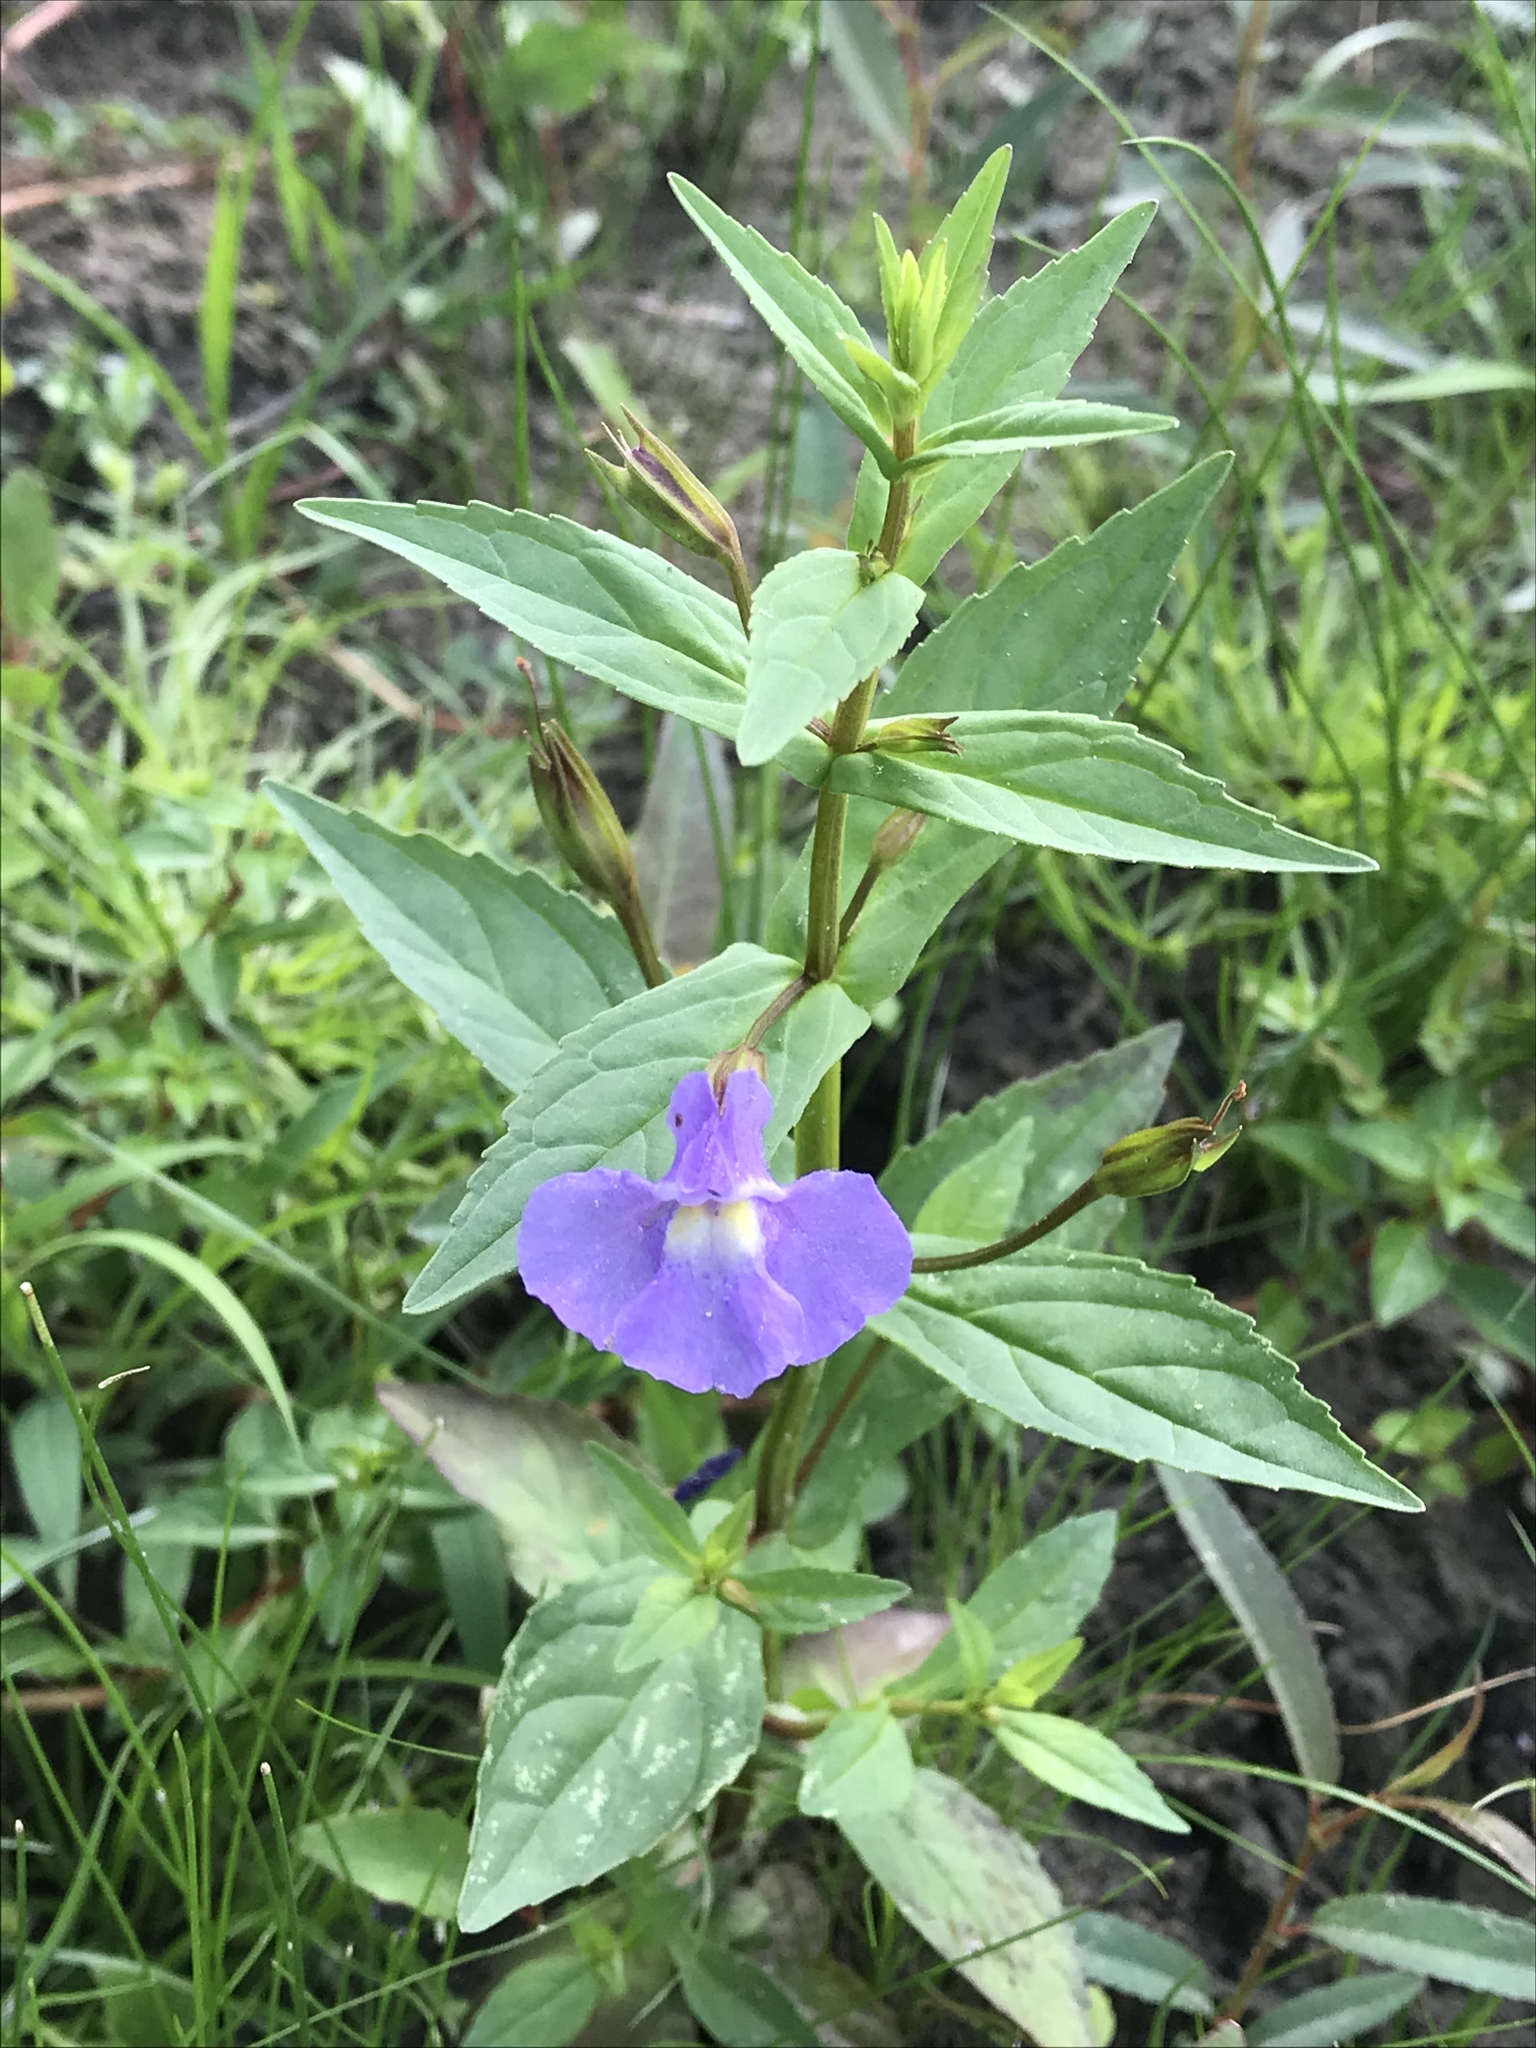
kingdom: Plantae
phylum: Tracheophyta
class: Magnoliopsida
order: Lamiales
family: Phrymaceae
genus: Mimulus
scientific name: Mimulus ringens
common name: Allegheny monkeyflower
